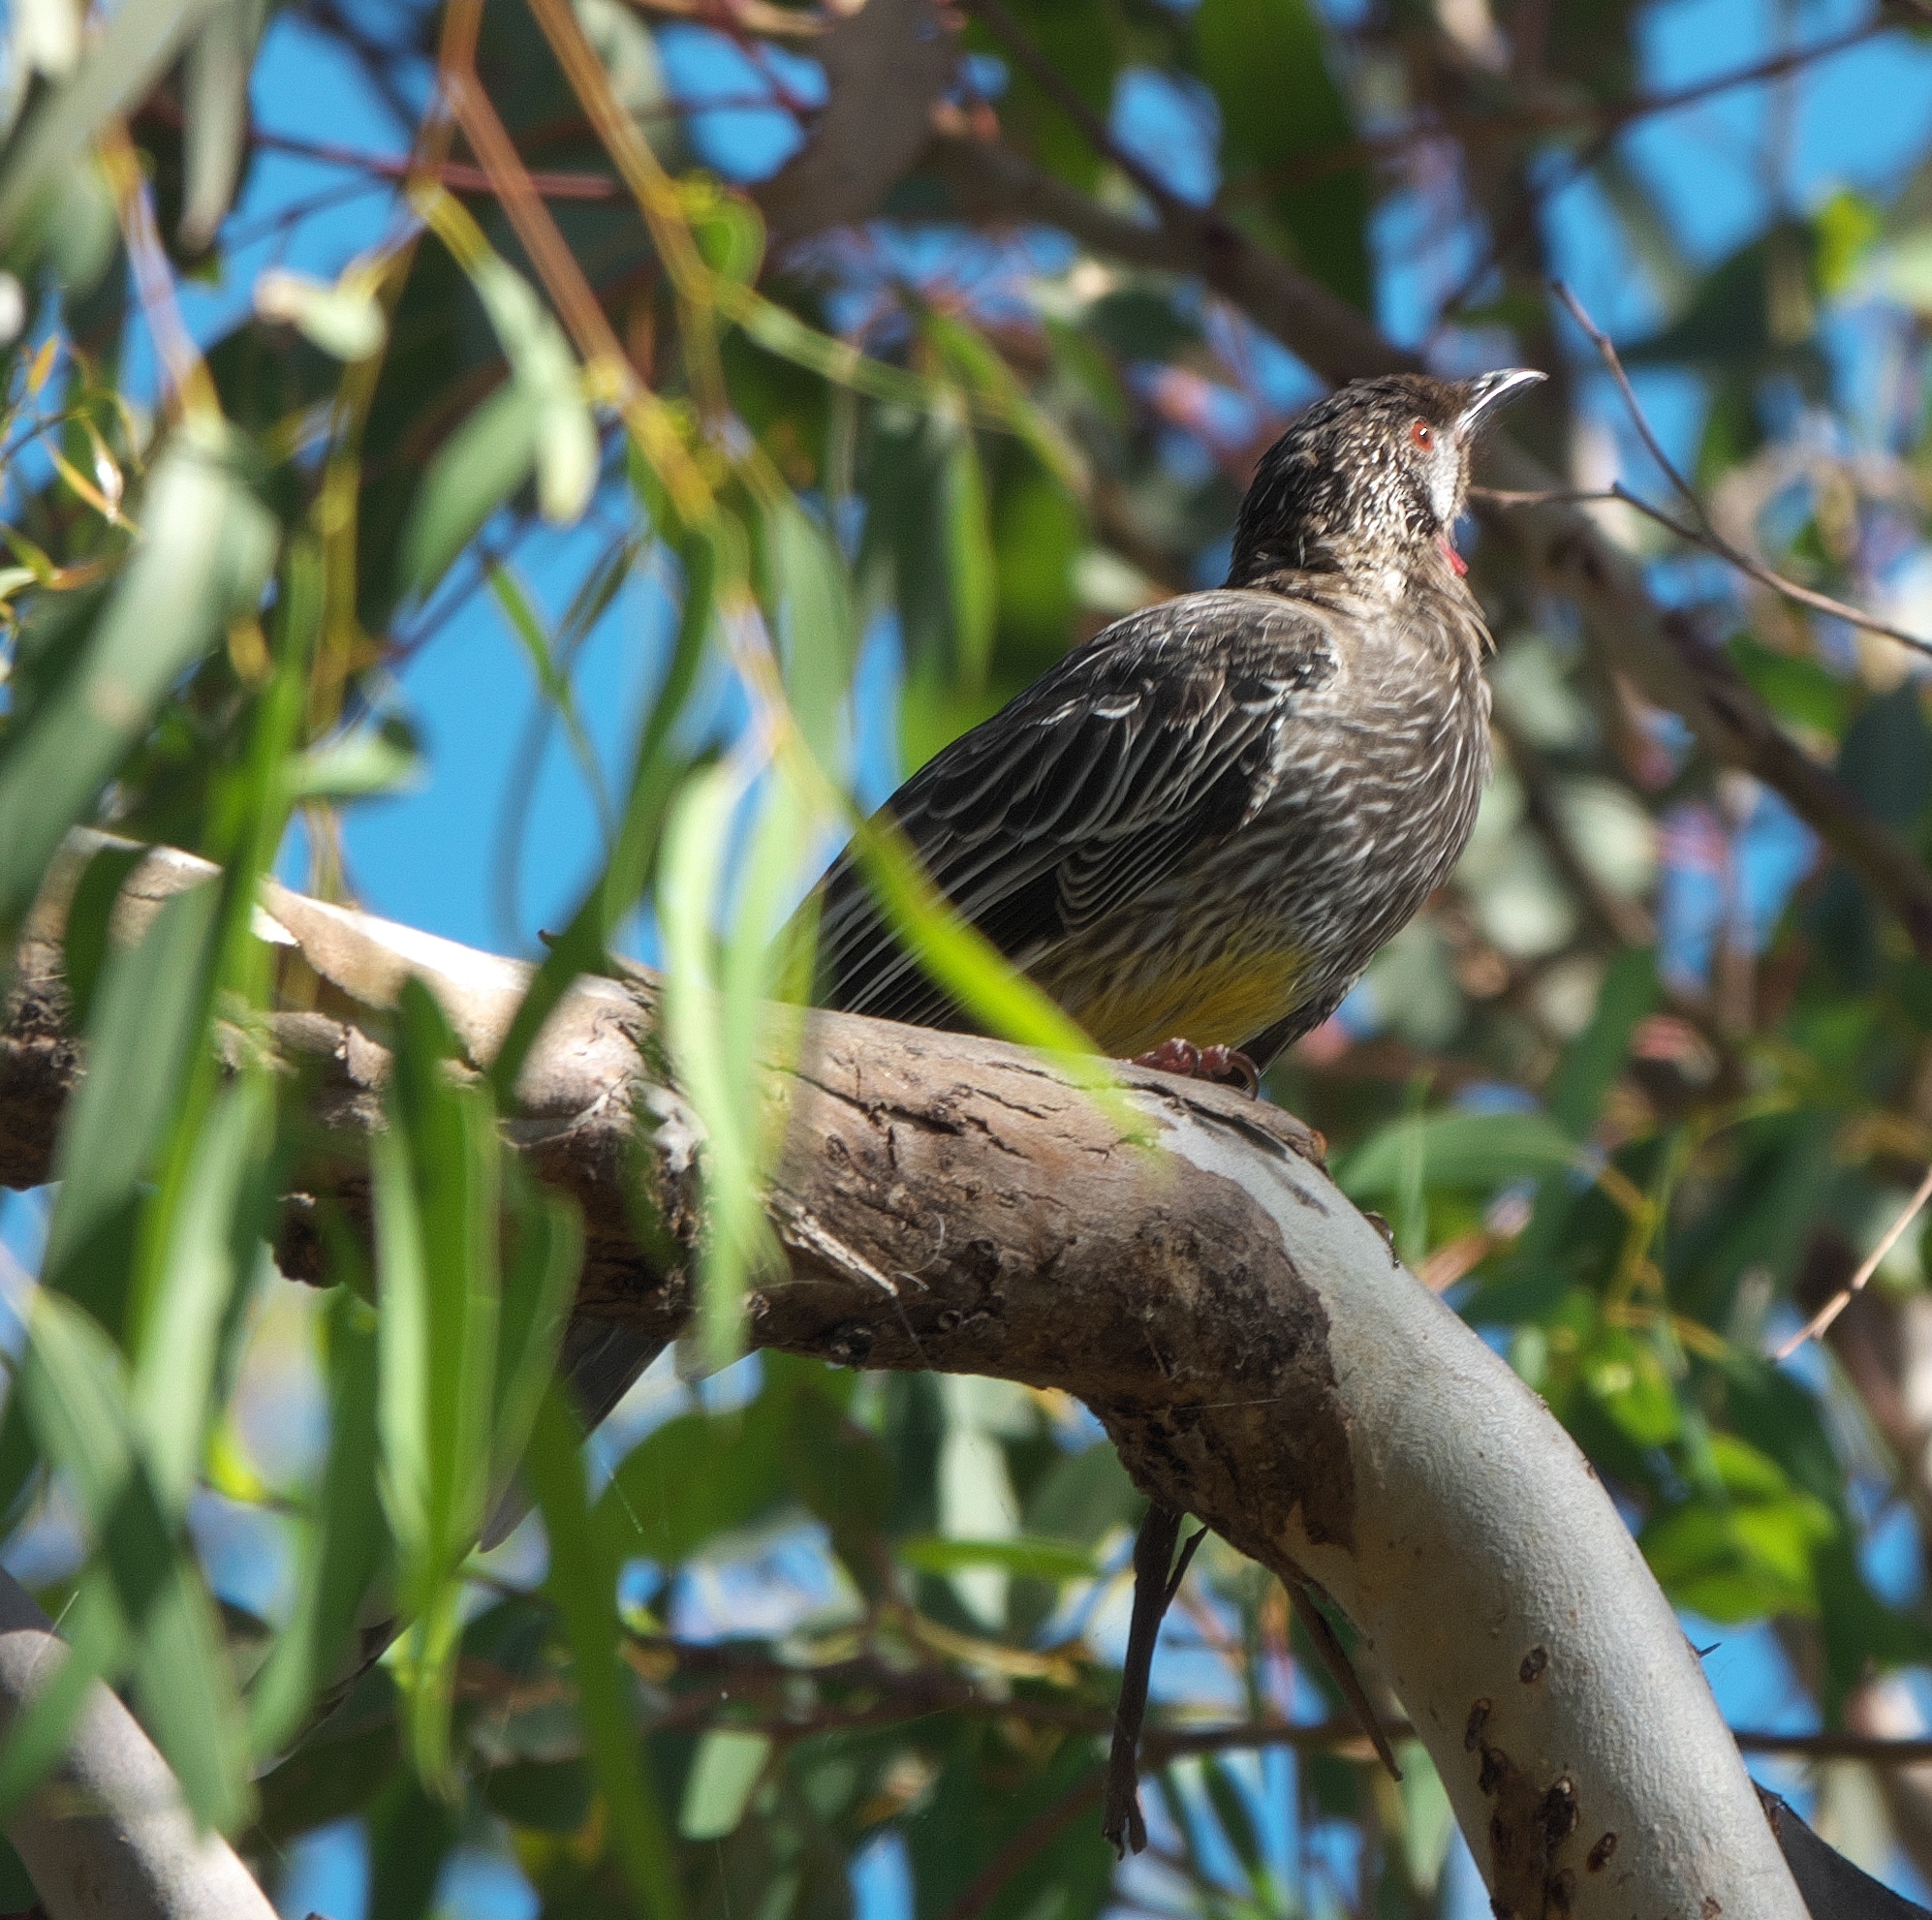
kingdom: Animalia
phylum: Chordata
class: Aves
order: Passeriformes
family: Meliphagidae
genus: Anthochaera
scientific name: Anthochaera carunculata
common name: Red wattlebird
